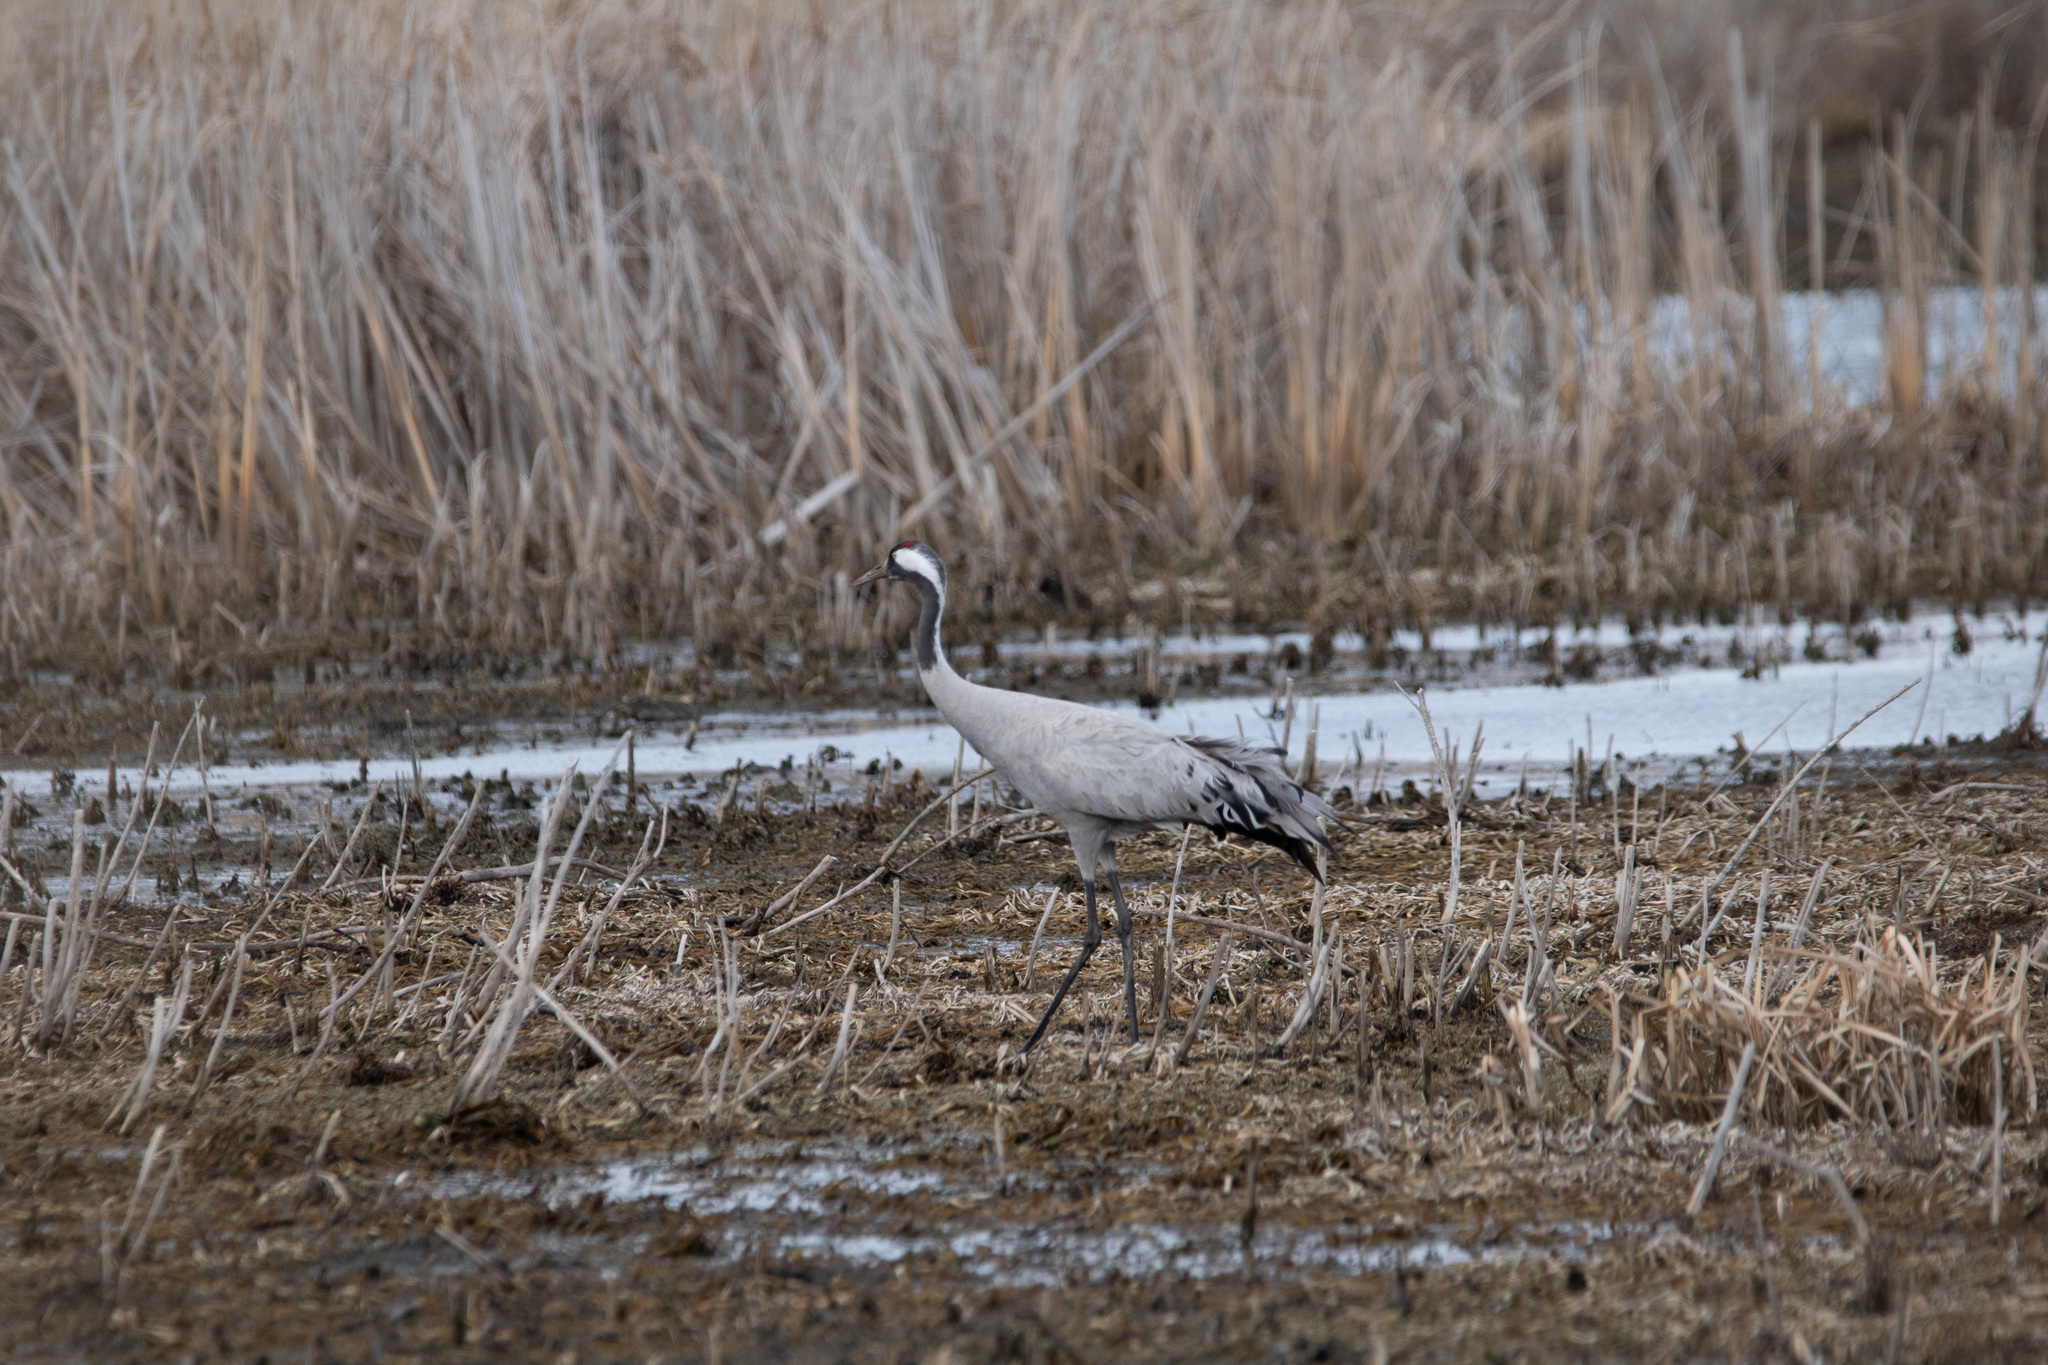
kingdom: Animalia
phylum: Chordata
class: Aves
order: Gruiformes
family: Gruidae
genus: Grus
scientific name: Grus grus
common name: Common crane
